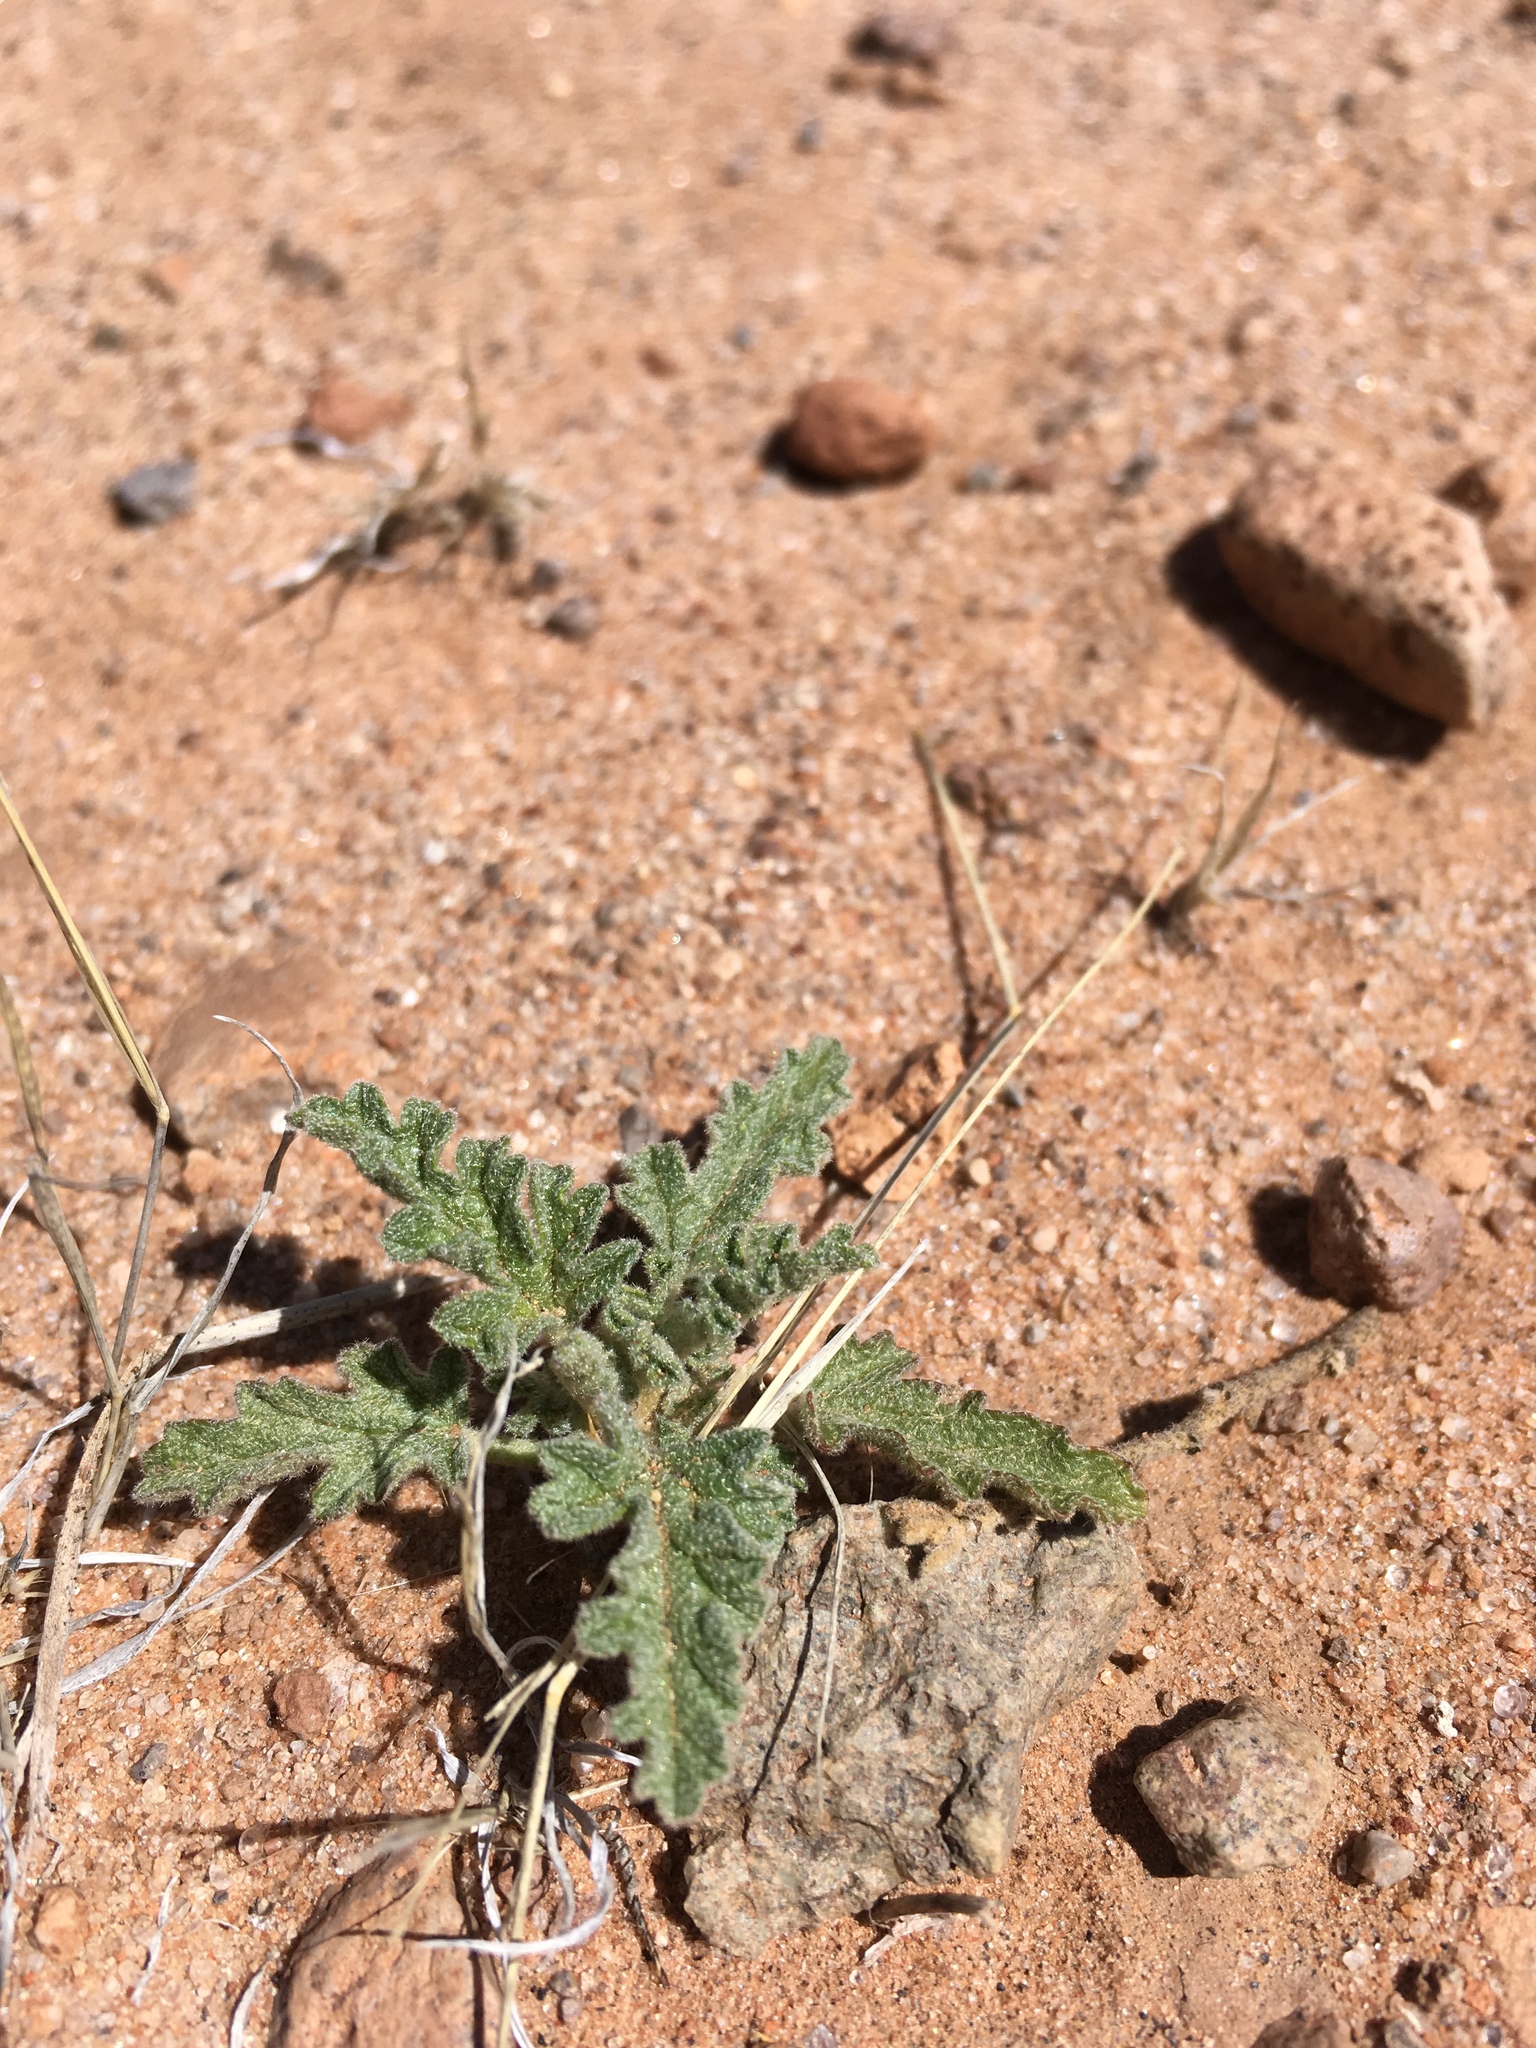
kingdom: Plantae
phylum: Tracheophyta
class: Magnoliopsida
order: Malvales
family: Malvaceae
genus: Sphaeralcea
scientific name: Sphaeralcea hastulata
